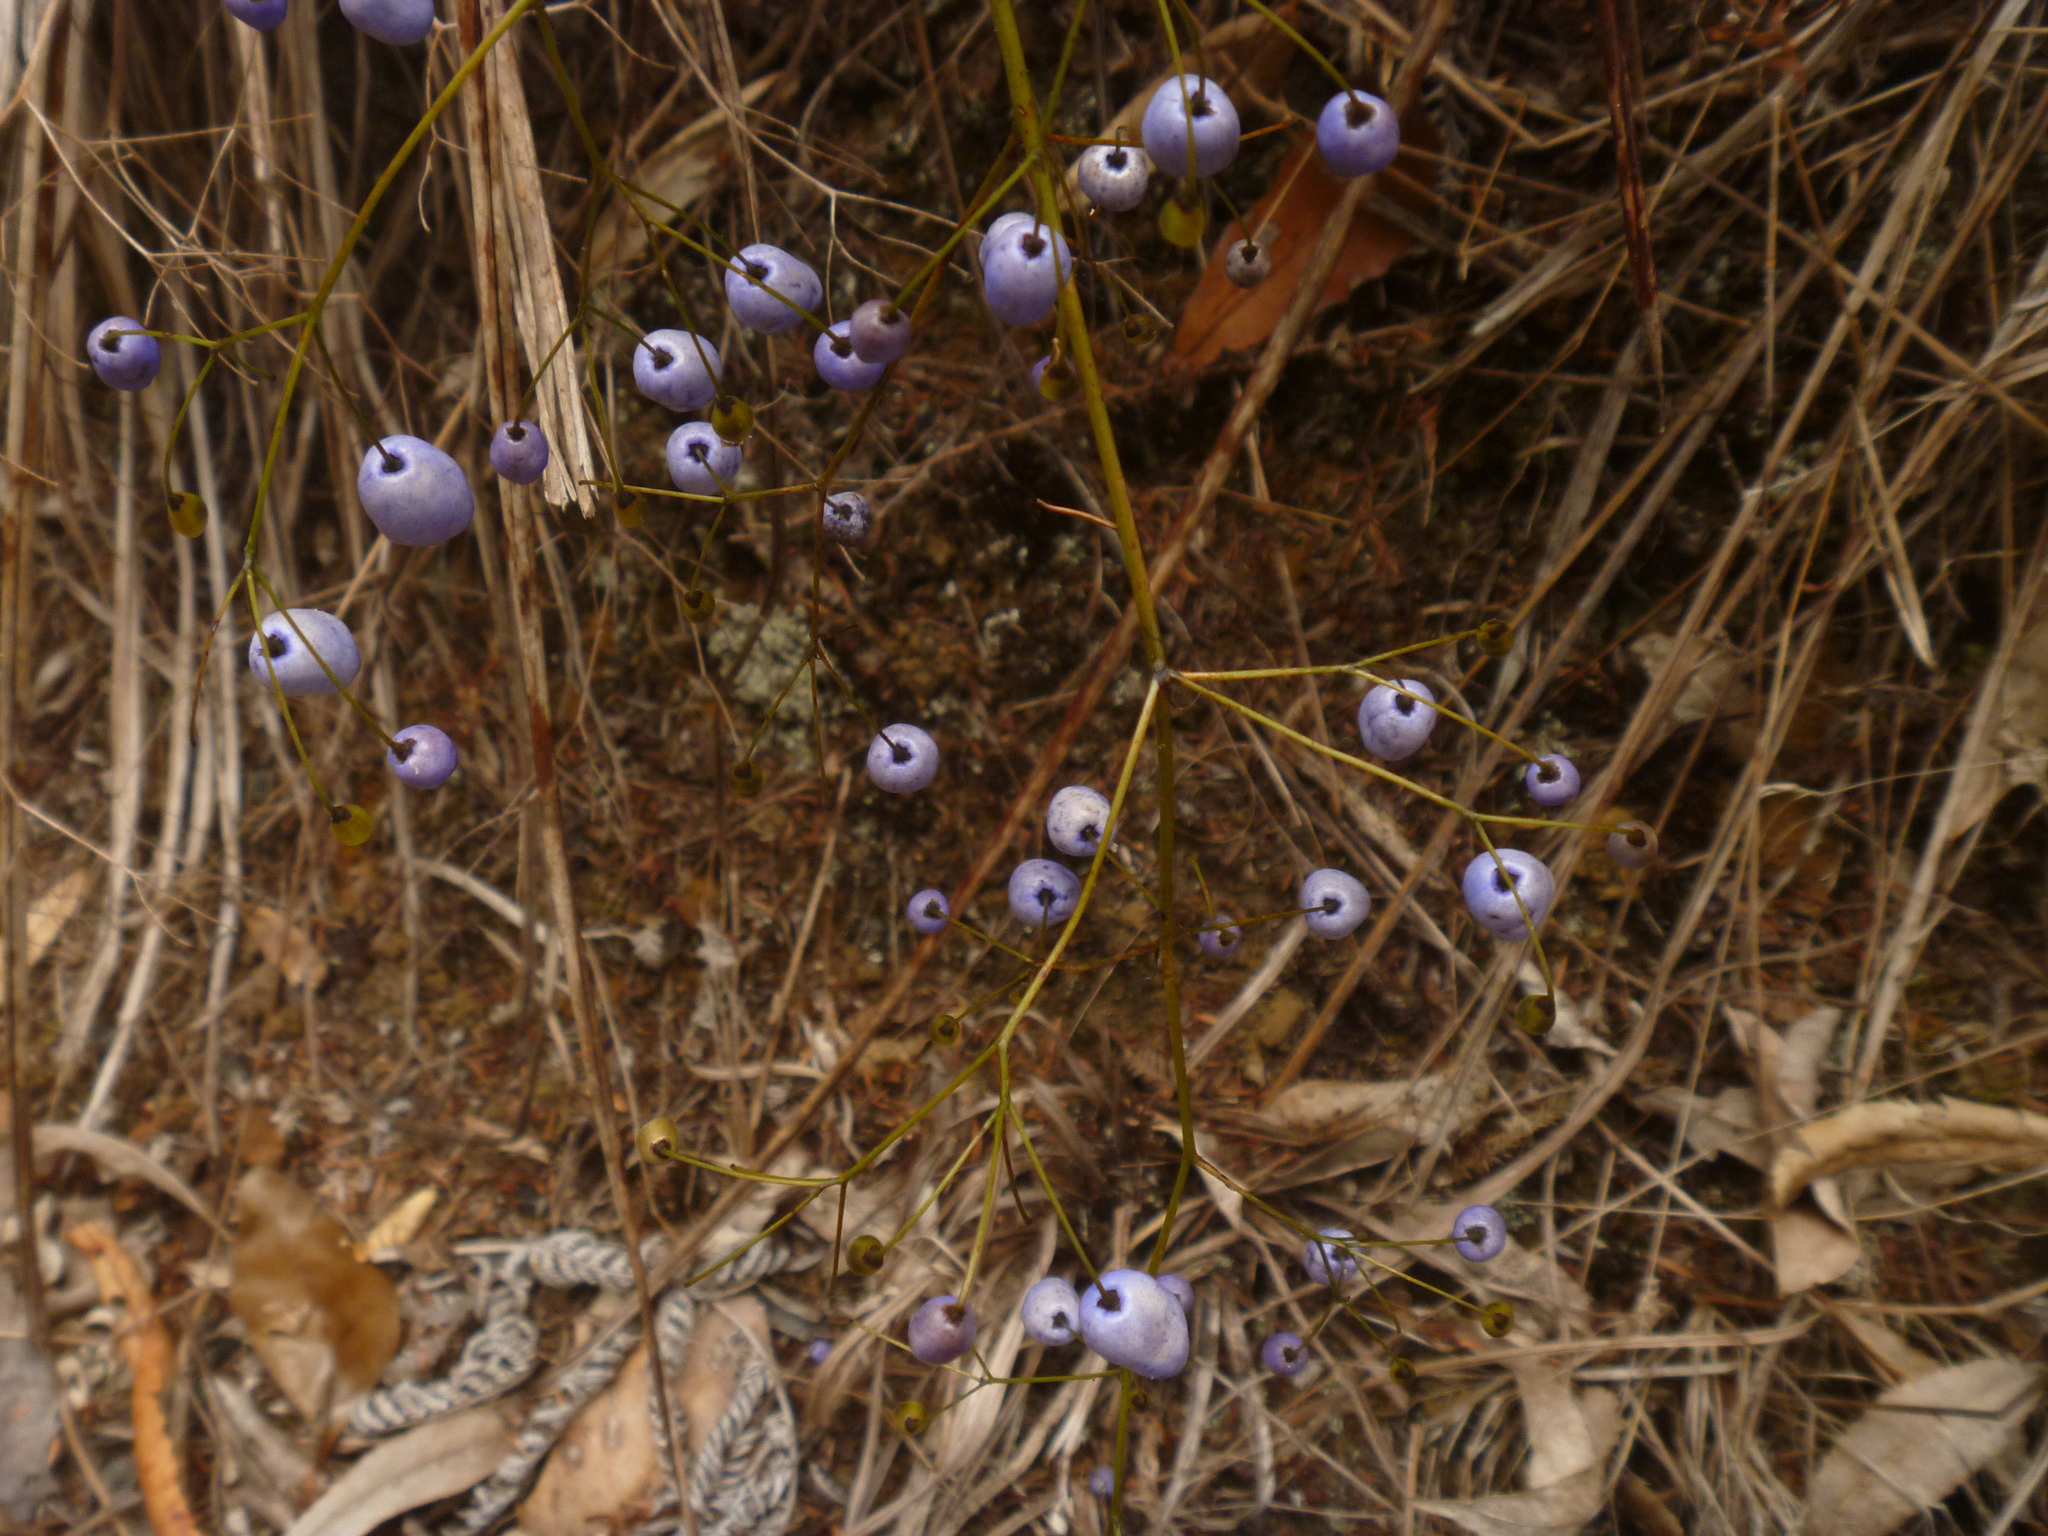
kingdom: Plantae
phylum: Tracheophyta
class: Liliopsida
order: Asparagales
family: Asphodelaceae
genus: Dianella
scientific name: Dianella nigra
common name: New zealand-blueberry
